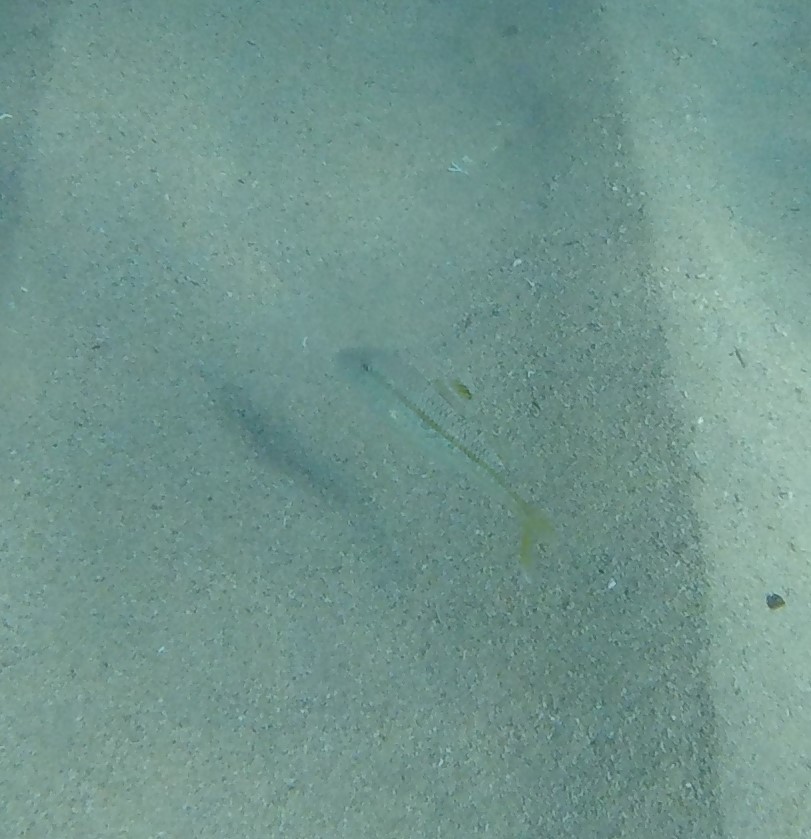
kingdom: Animalia
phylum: Chordata
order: Perciformes
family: Mullidae
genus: Mullus
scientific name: Mullus surmuletus
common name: Red mullet
